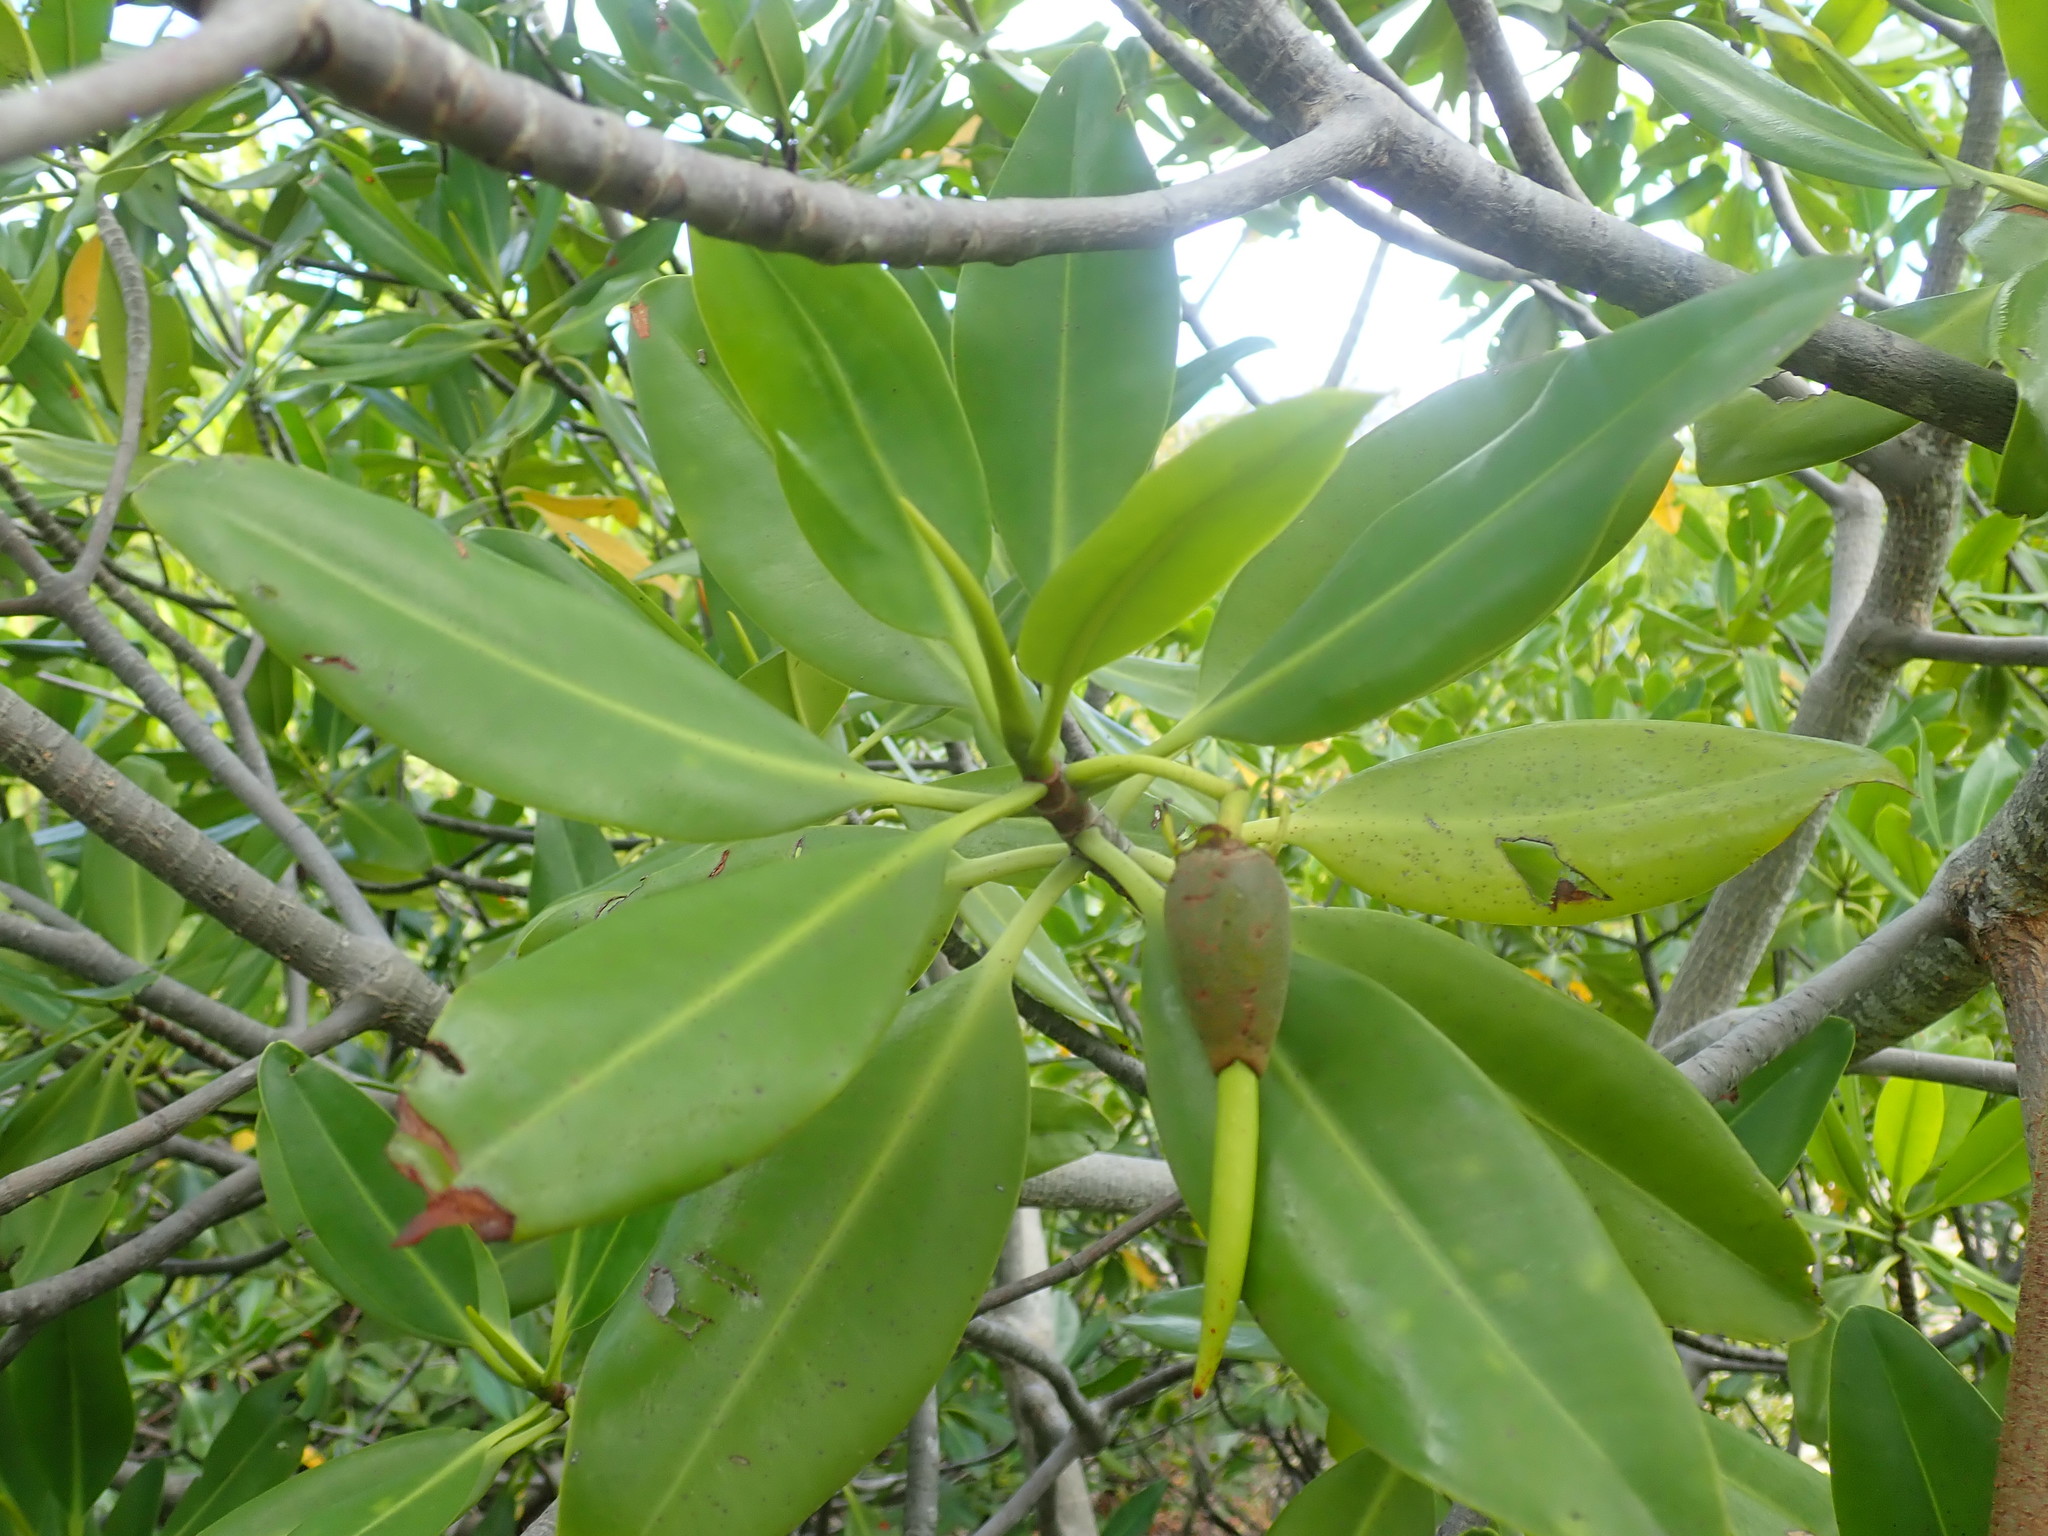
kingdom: Plantae
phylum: Tracheophyta
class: Magnoliopsida
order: Malpighiales
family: Rhizophoraceae
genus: Rhizophora
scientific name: Rhizophora mangle
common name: Red mangrove
